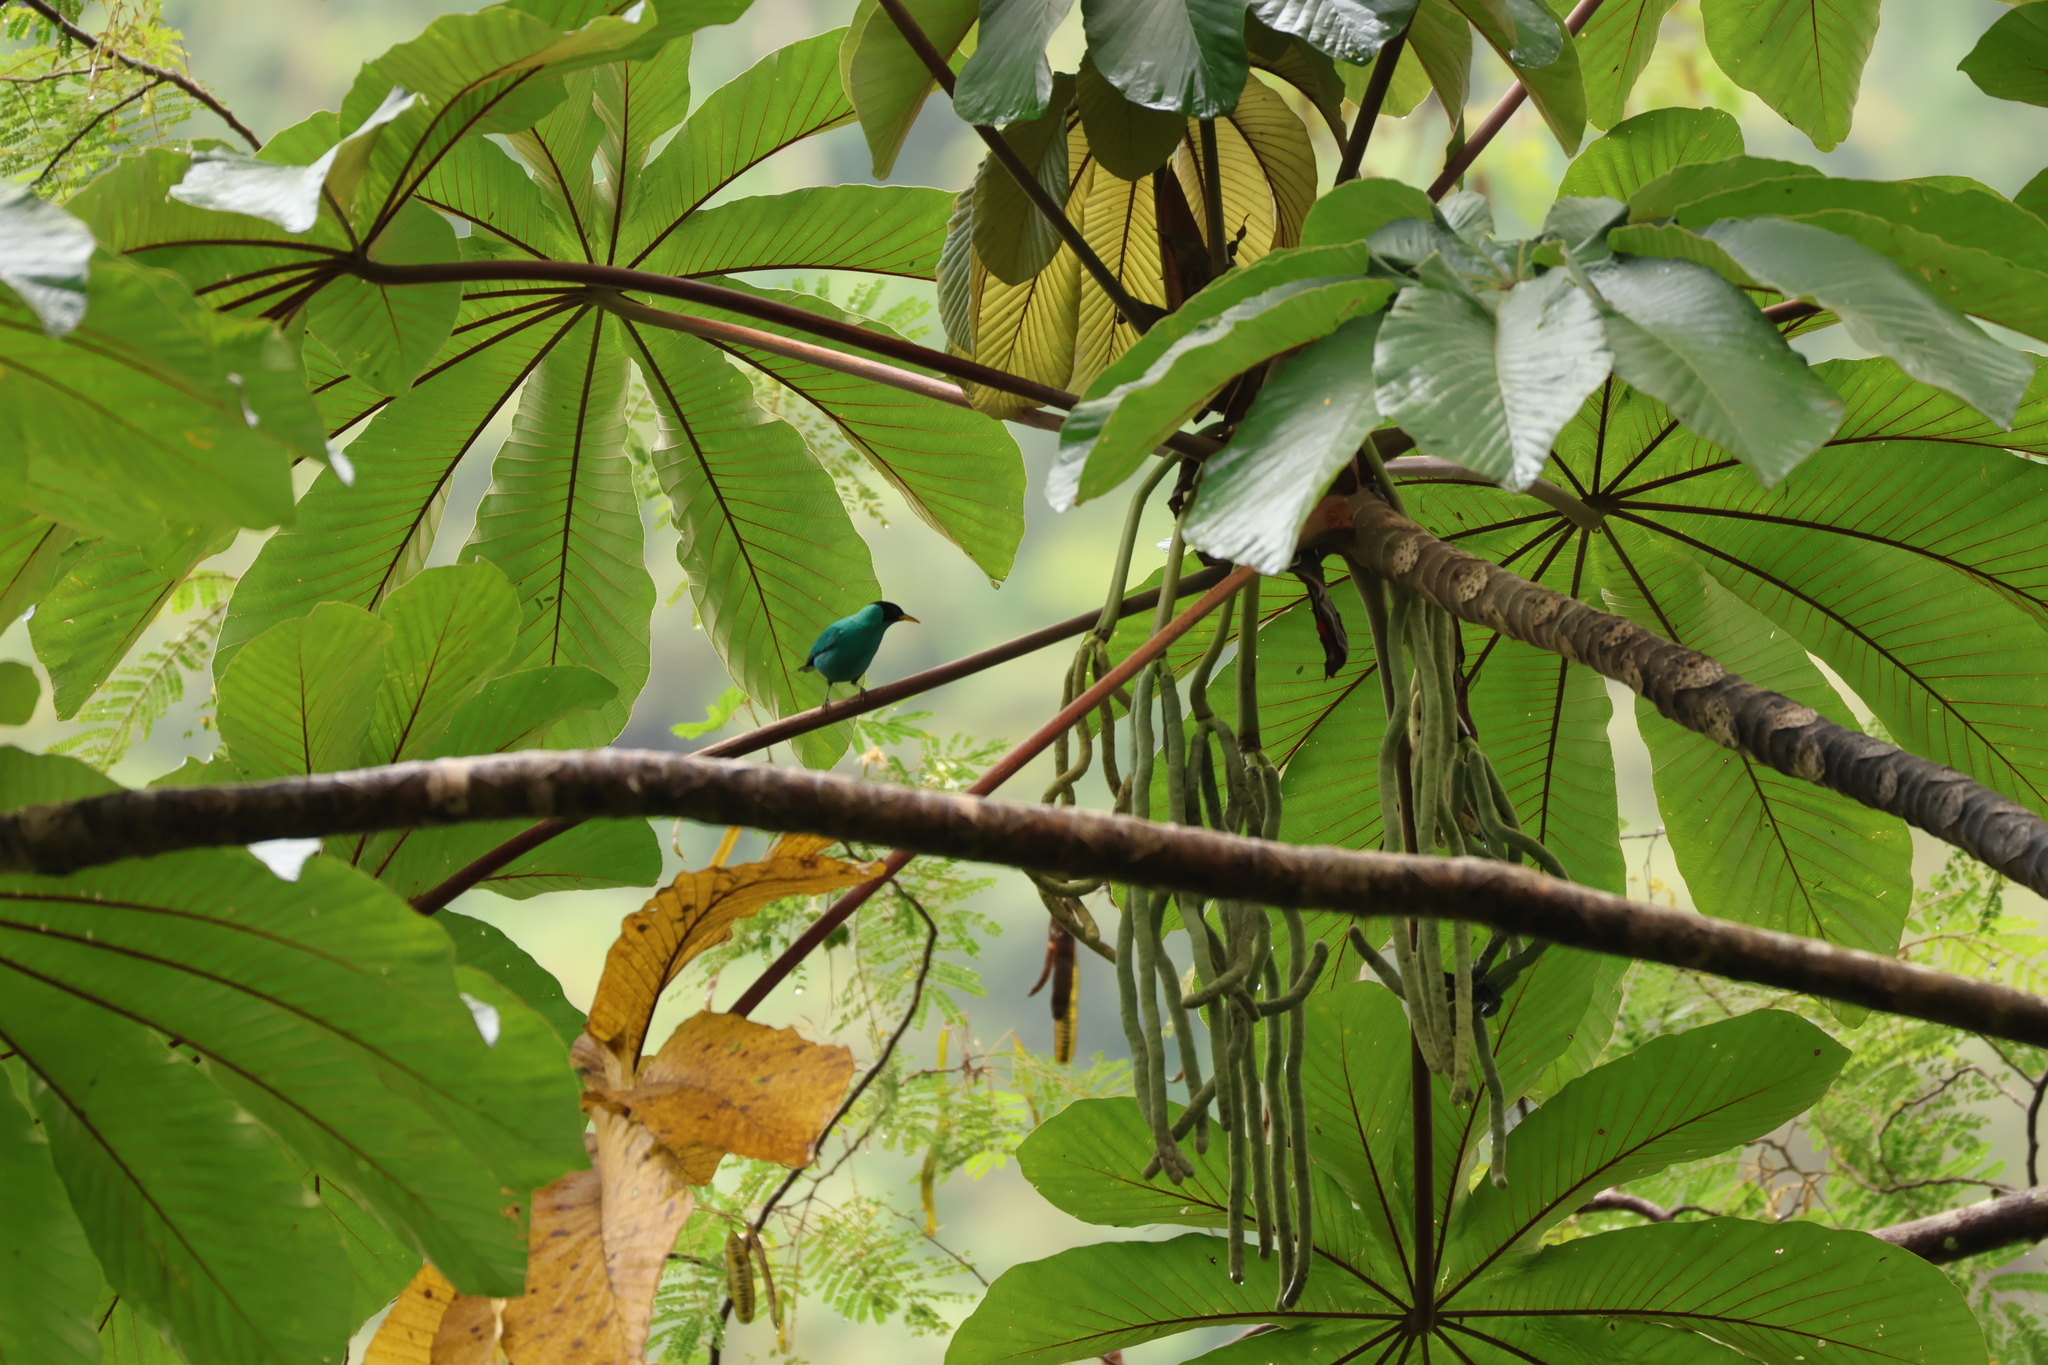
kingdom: Animalia
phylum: Chordata
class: Aves
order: Passeriformes
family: Thraupidae
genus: Chlorophanes
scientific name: Chlorophanes spiza
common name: Green honeycreeper
